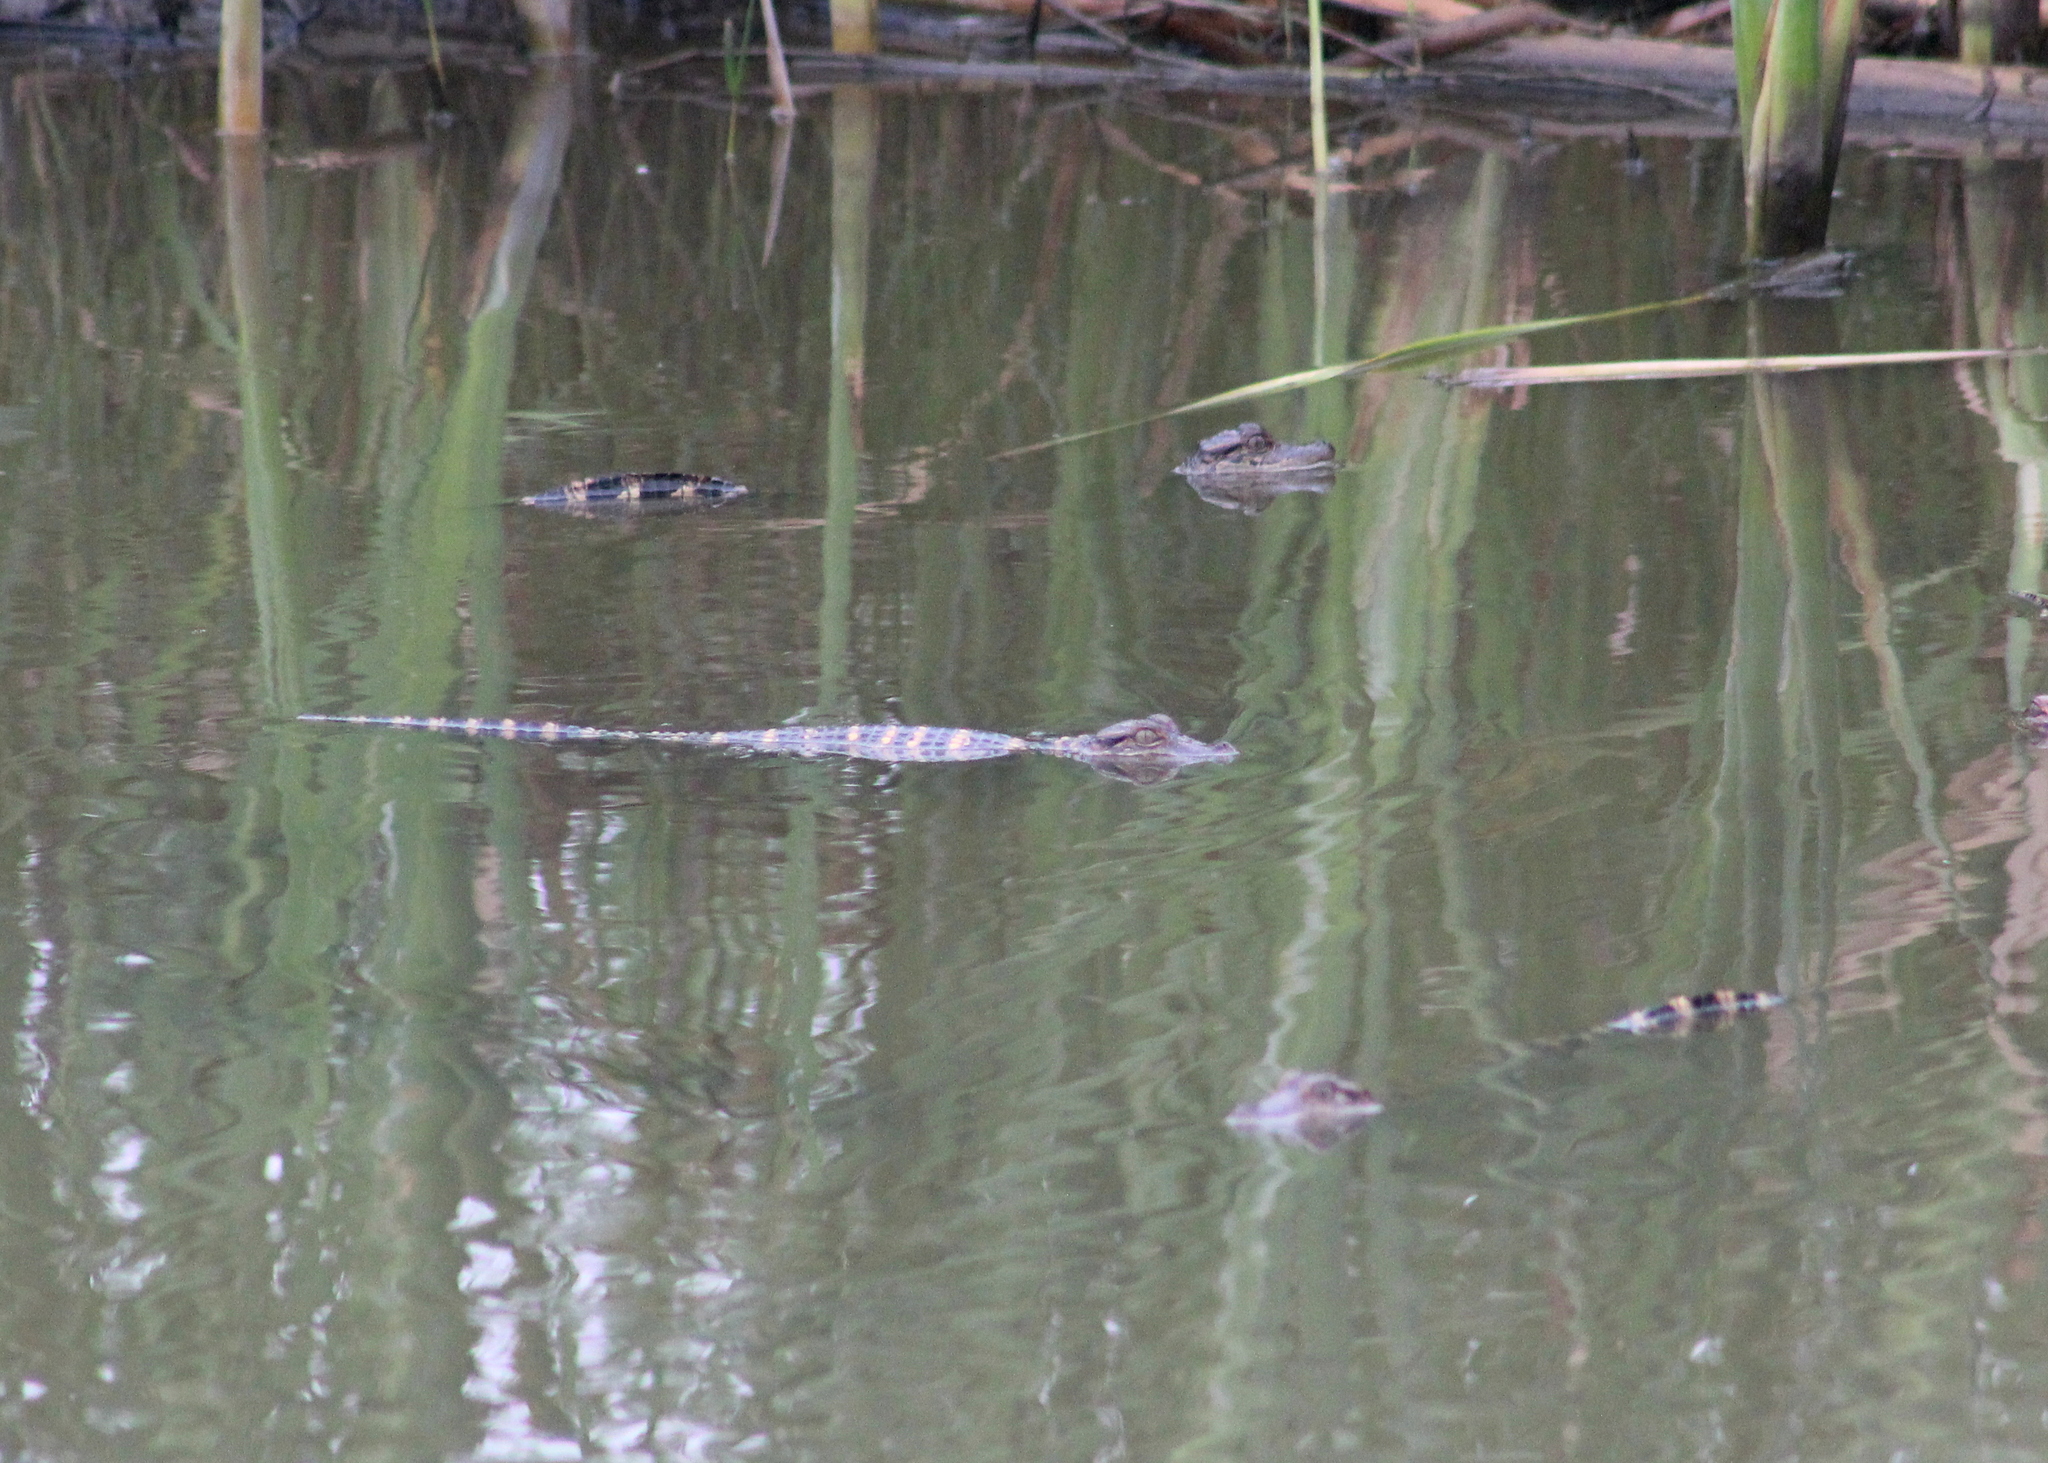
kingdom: Animalia
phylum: Chordata
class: Crocodylia
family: Alligatoridae
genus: Alligator
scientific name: Alligator mississippiensis
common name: American alligator
